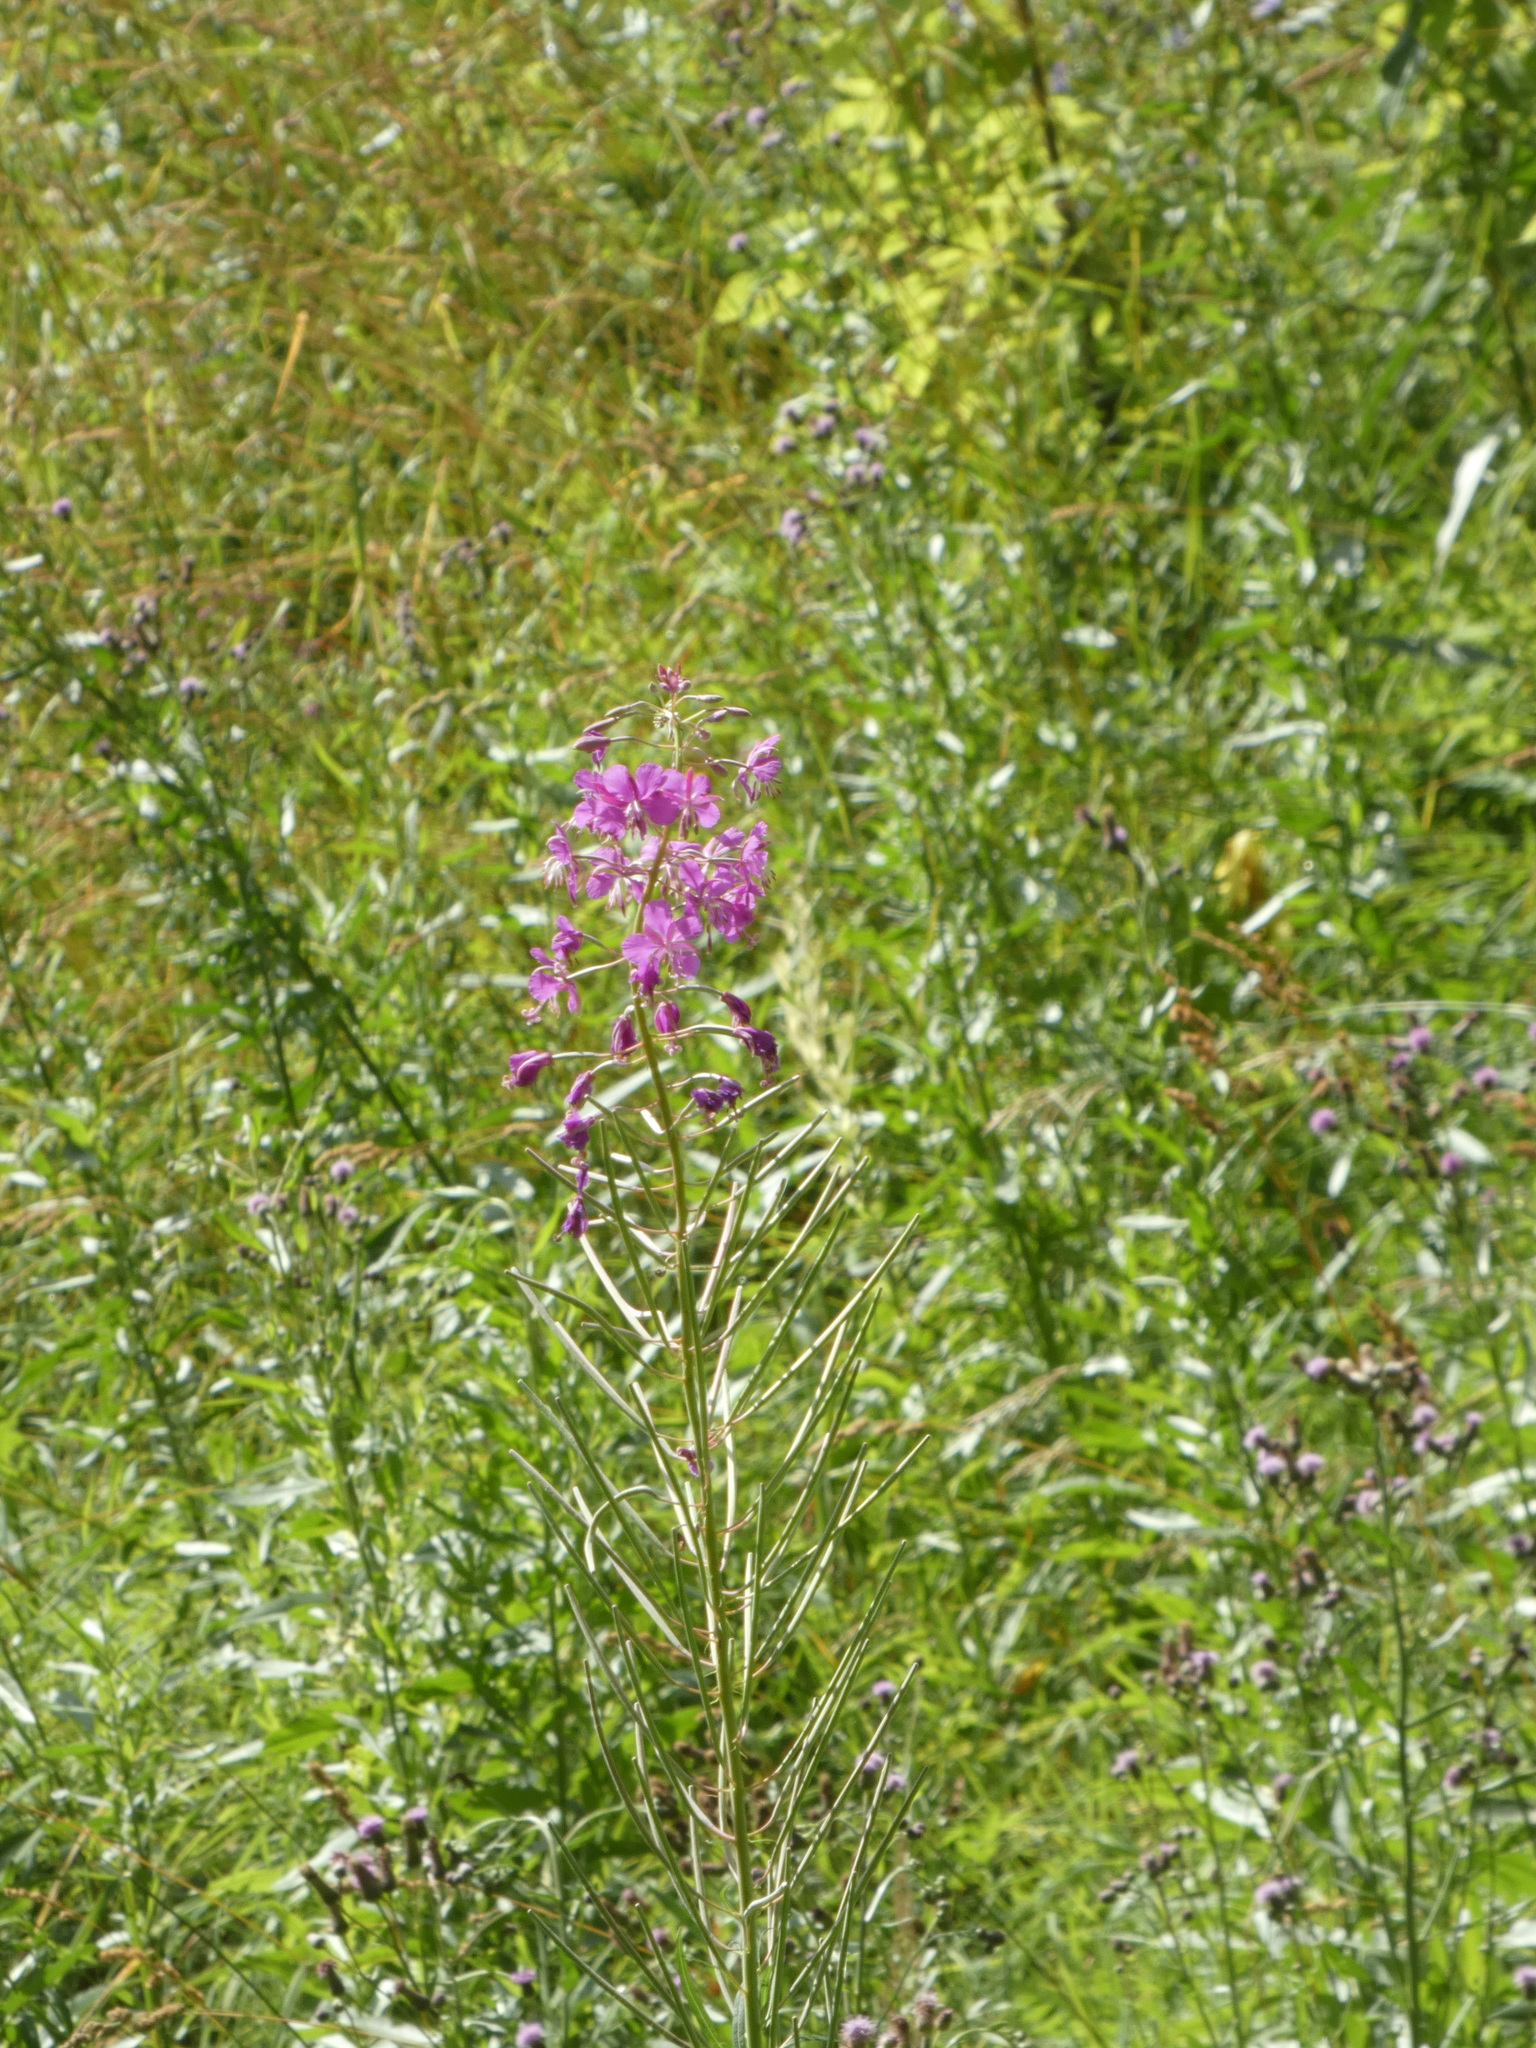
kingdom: Plantae
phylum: Tracheophyta
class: Magnoliopsida
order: Myrtales
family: Onagraceae
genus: Chamaenerion
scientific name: Chamaenerion angustifolium
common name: Fireweed
